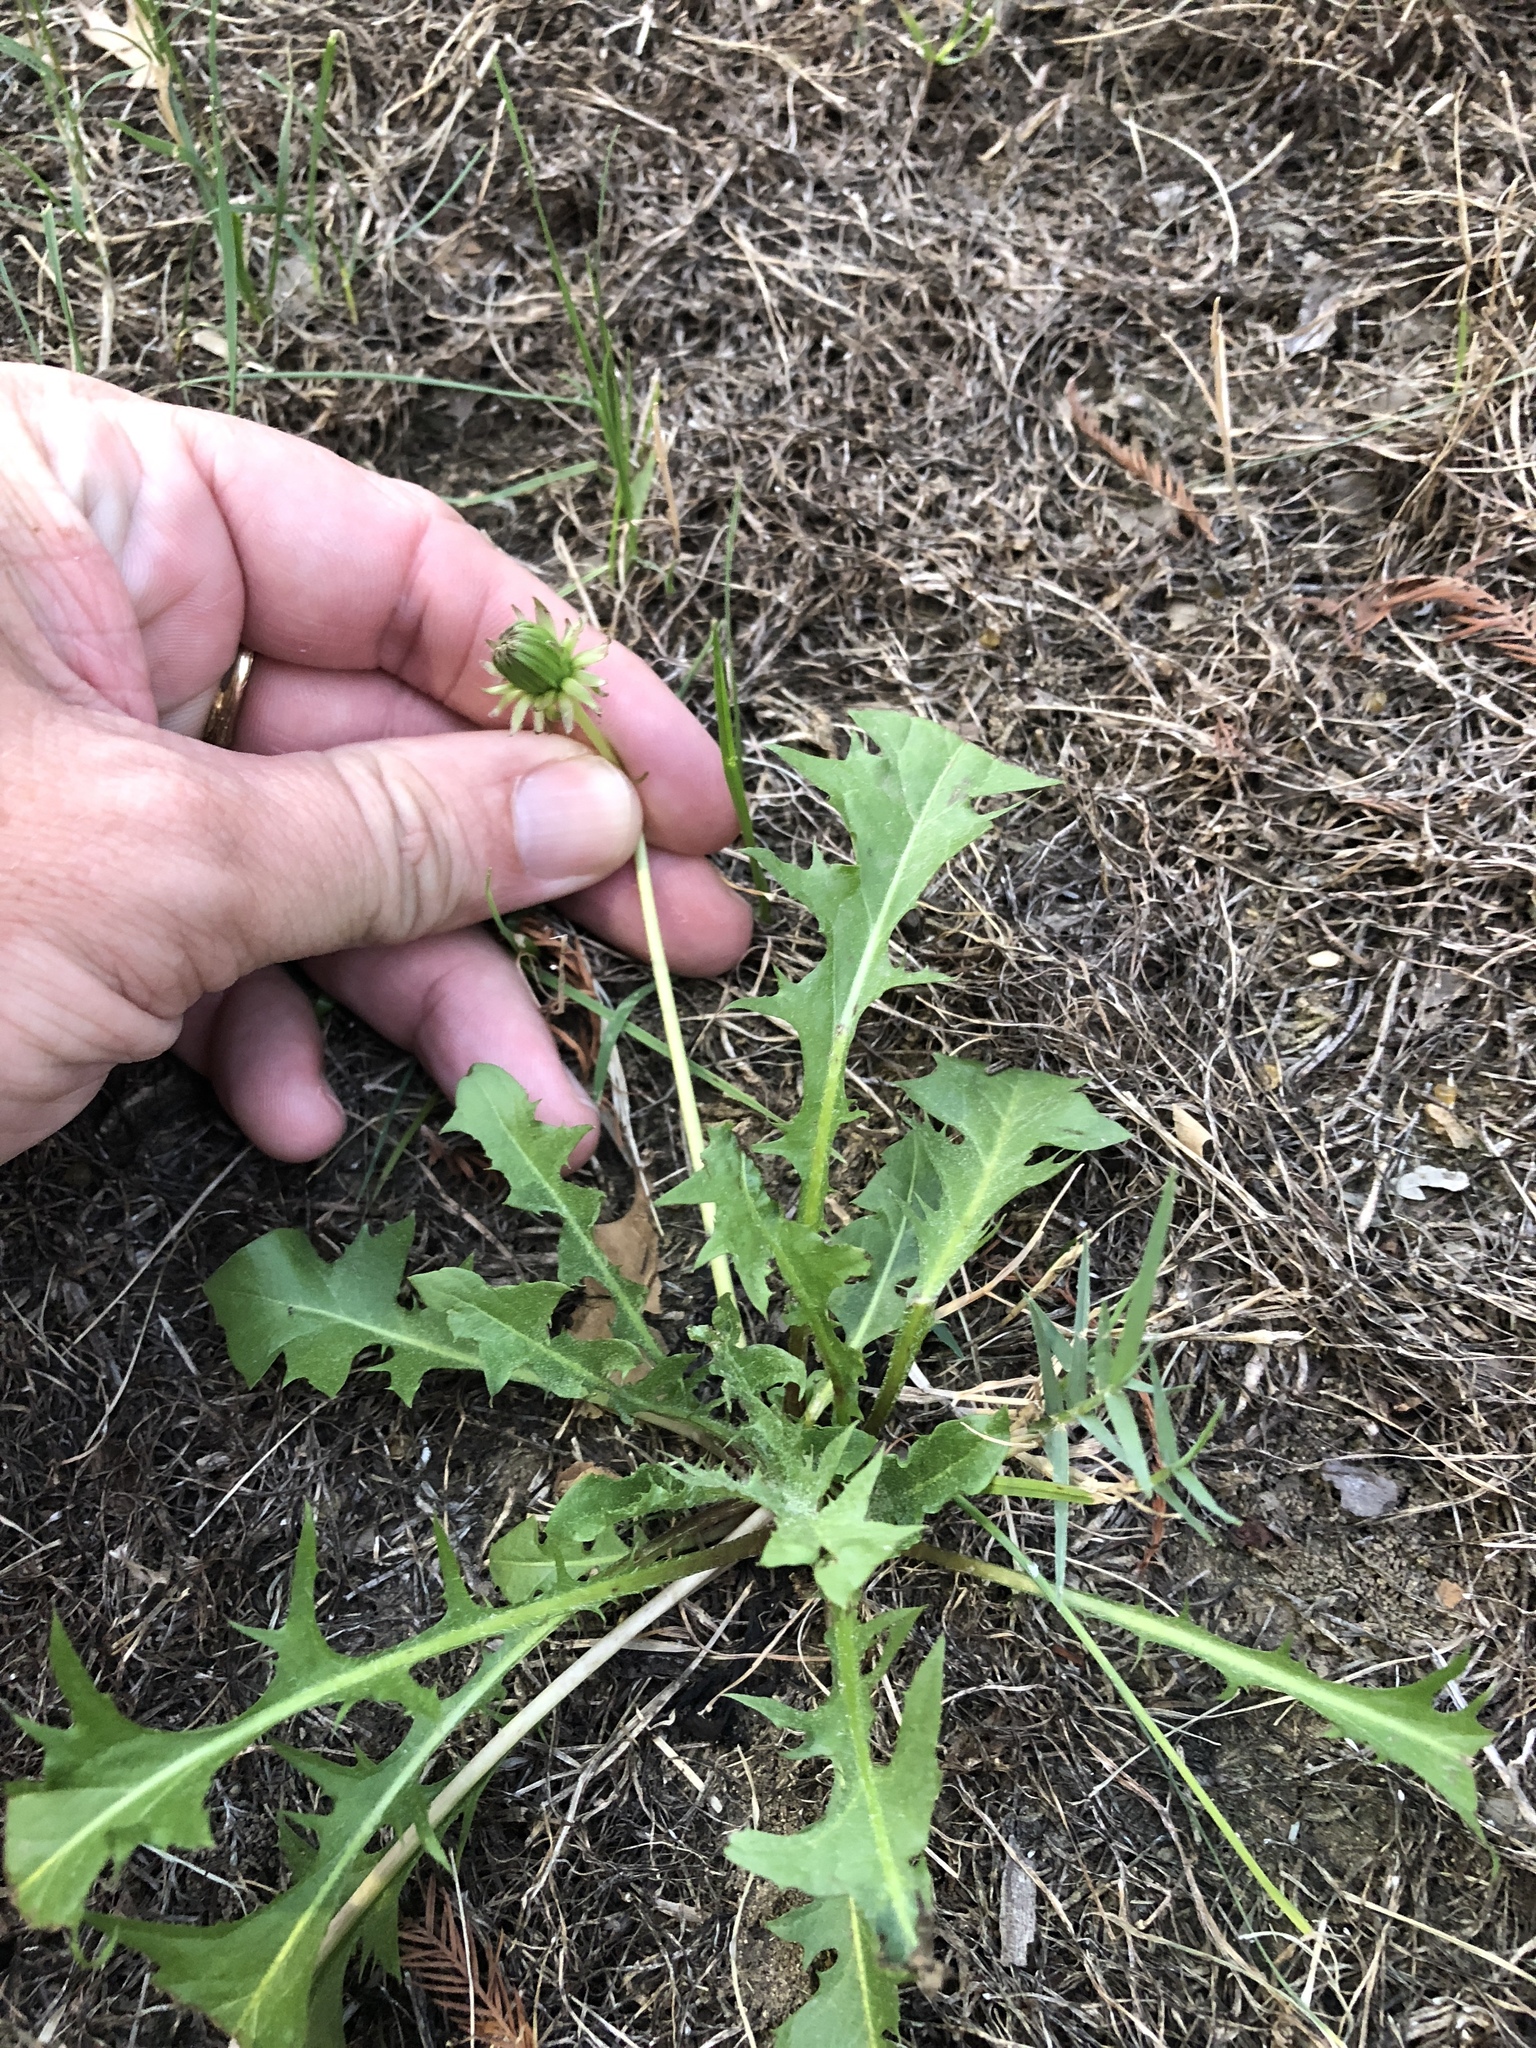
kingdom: Plantae
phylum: Tracheophyta
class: Magnoliopsida
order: Asterales
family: Asteraceae
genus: Taraxacum
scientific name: Taraxacum officinale
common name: Common dandelion
